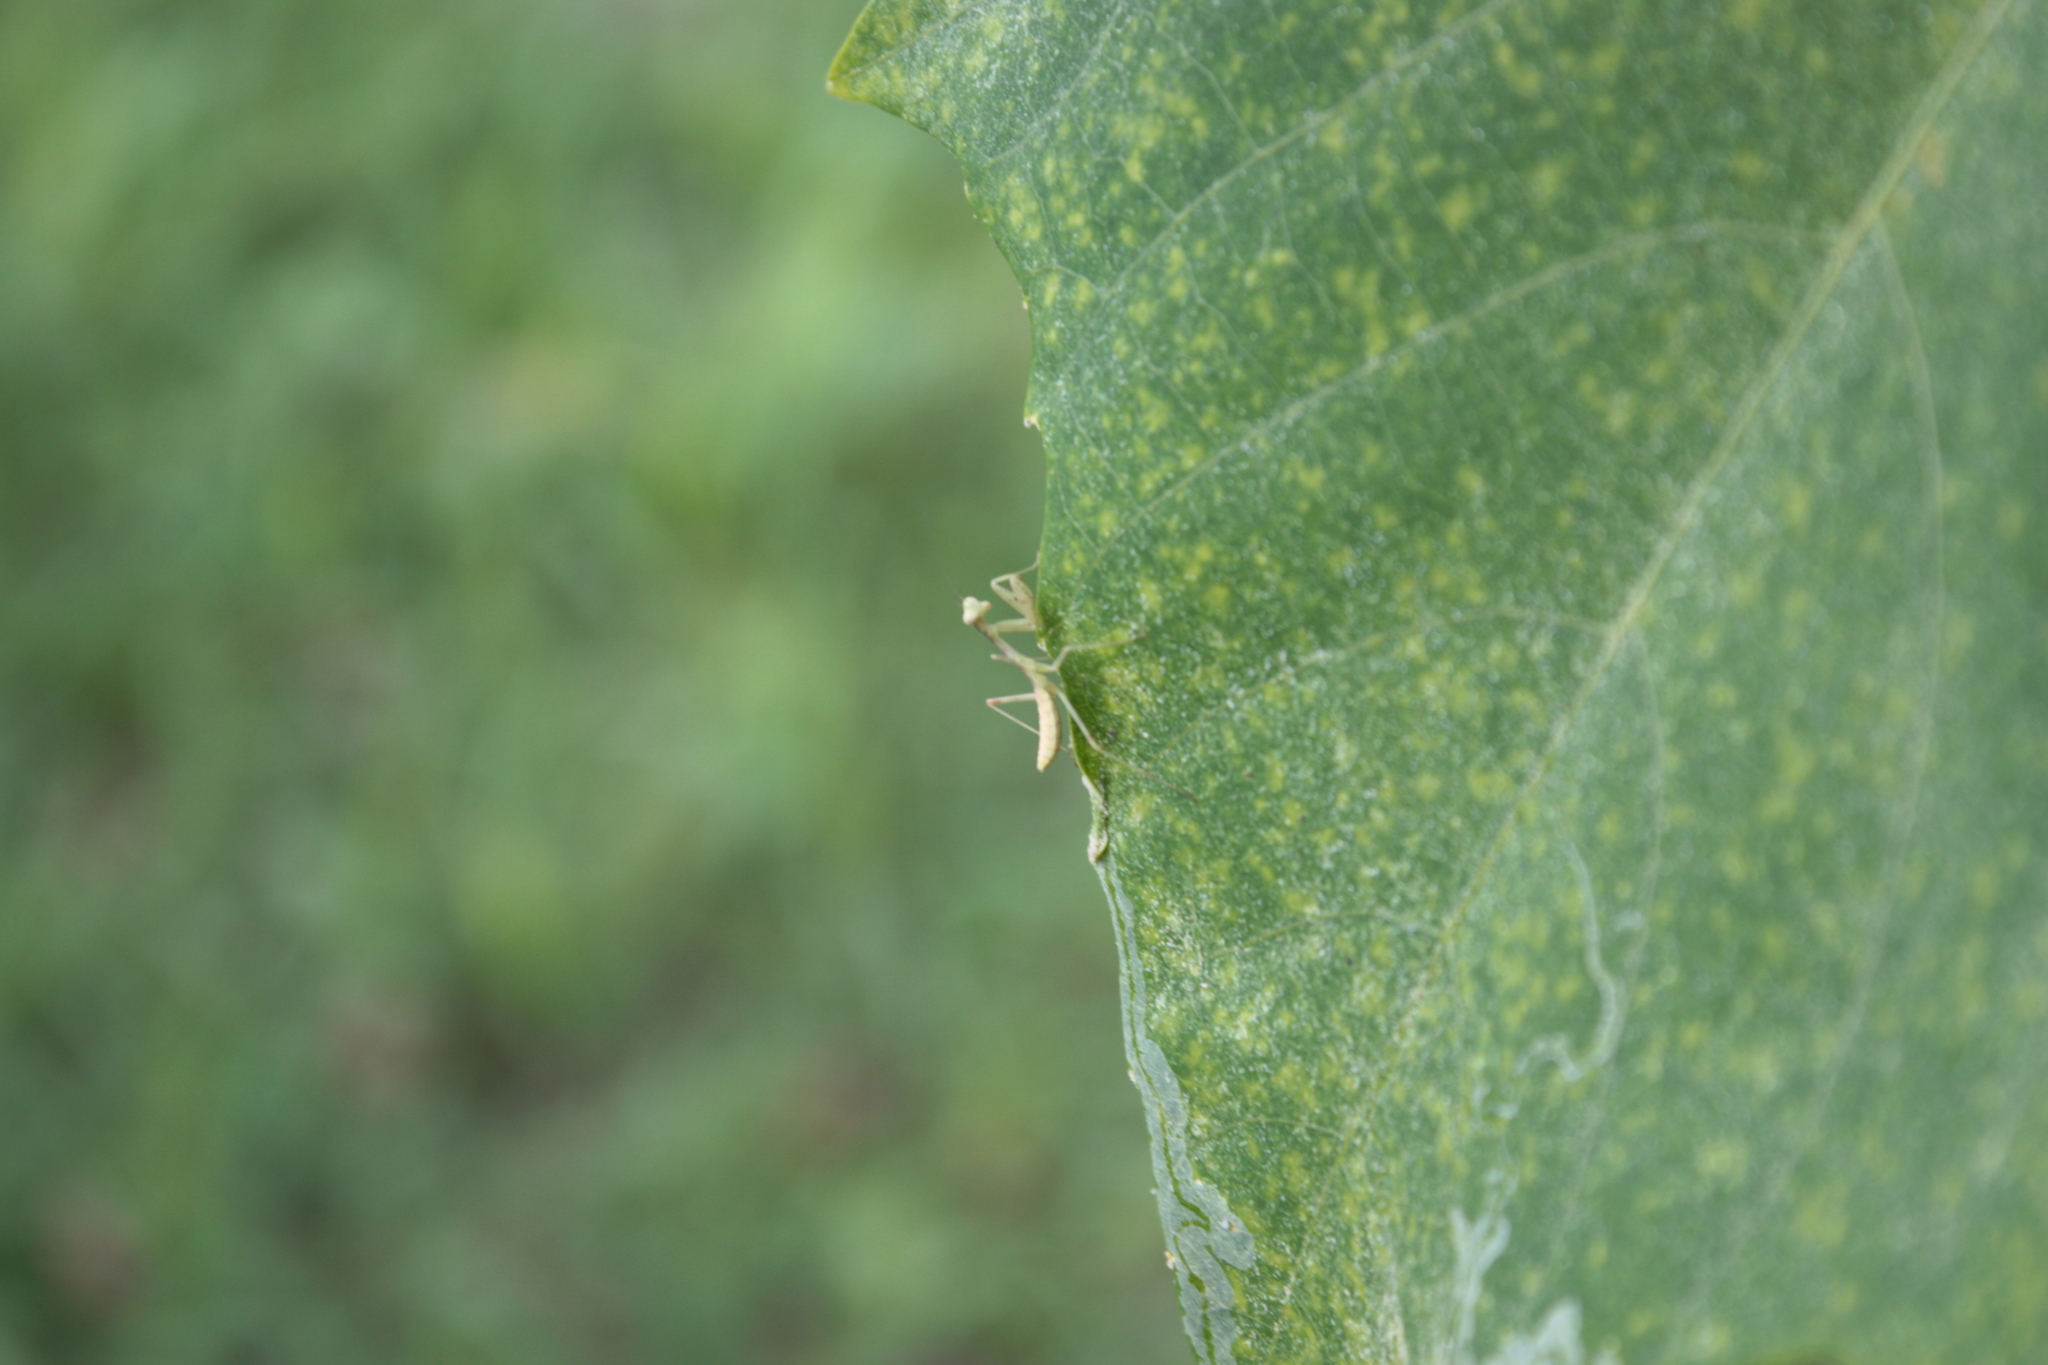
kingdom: Animalia
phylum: Arthropoda
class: Insecta
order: Mantodea
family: Mantidae
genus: Hierodula
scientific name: Hierodula patellifera
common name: Asian mantis
